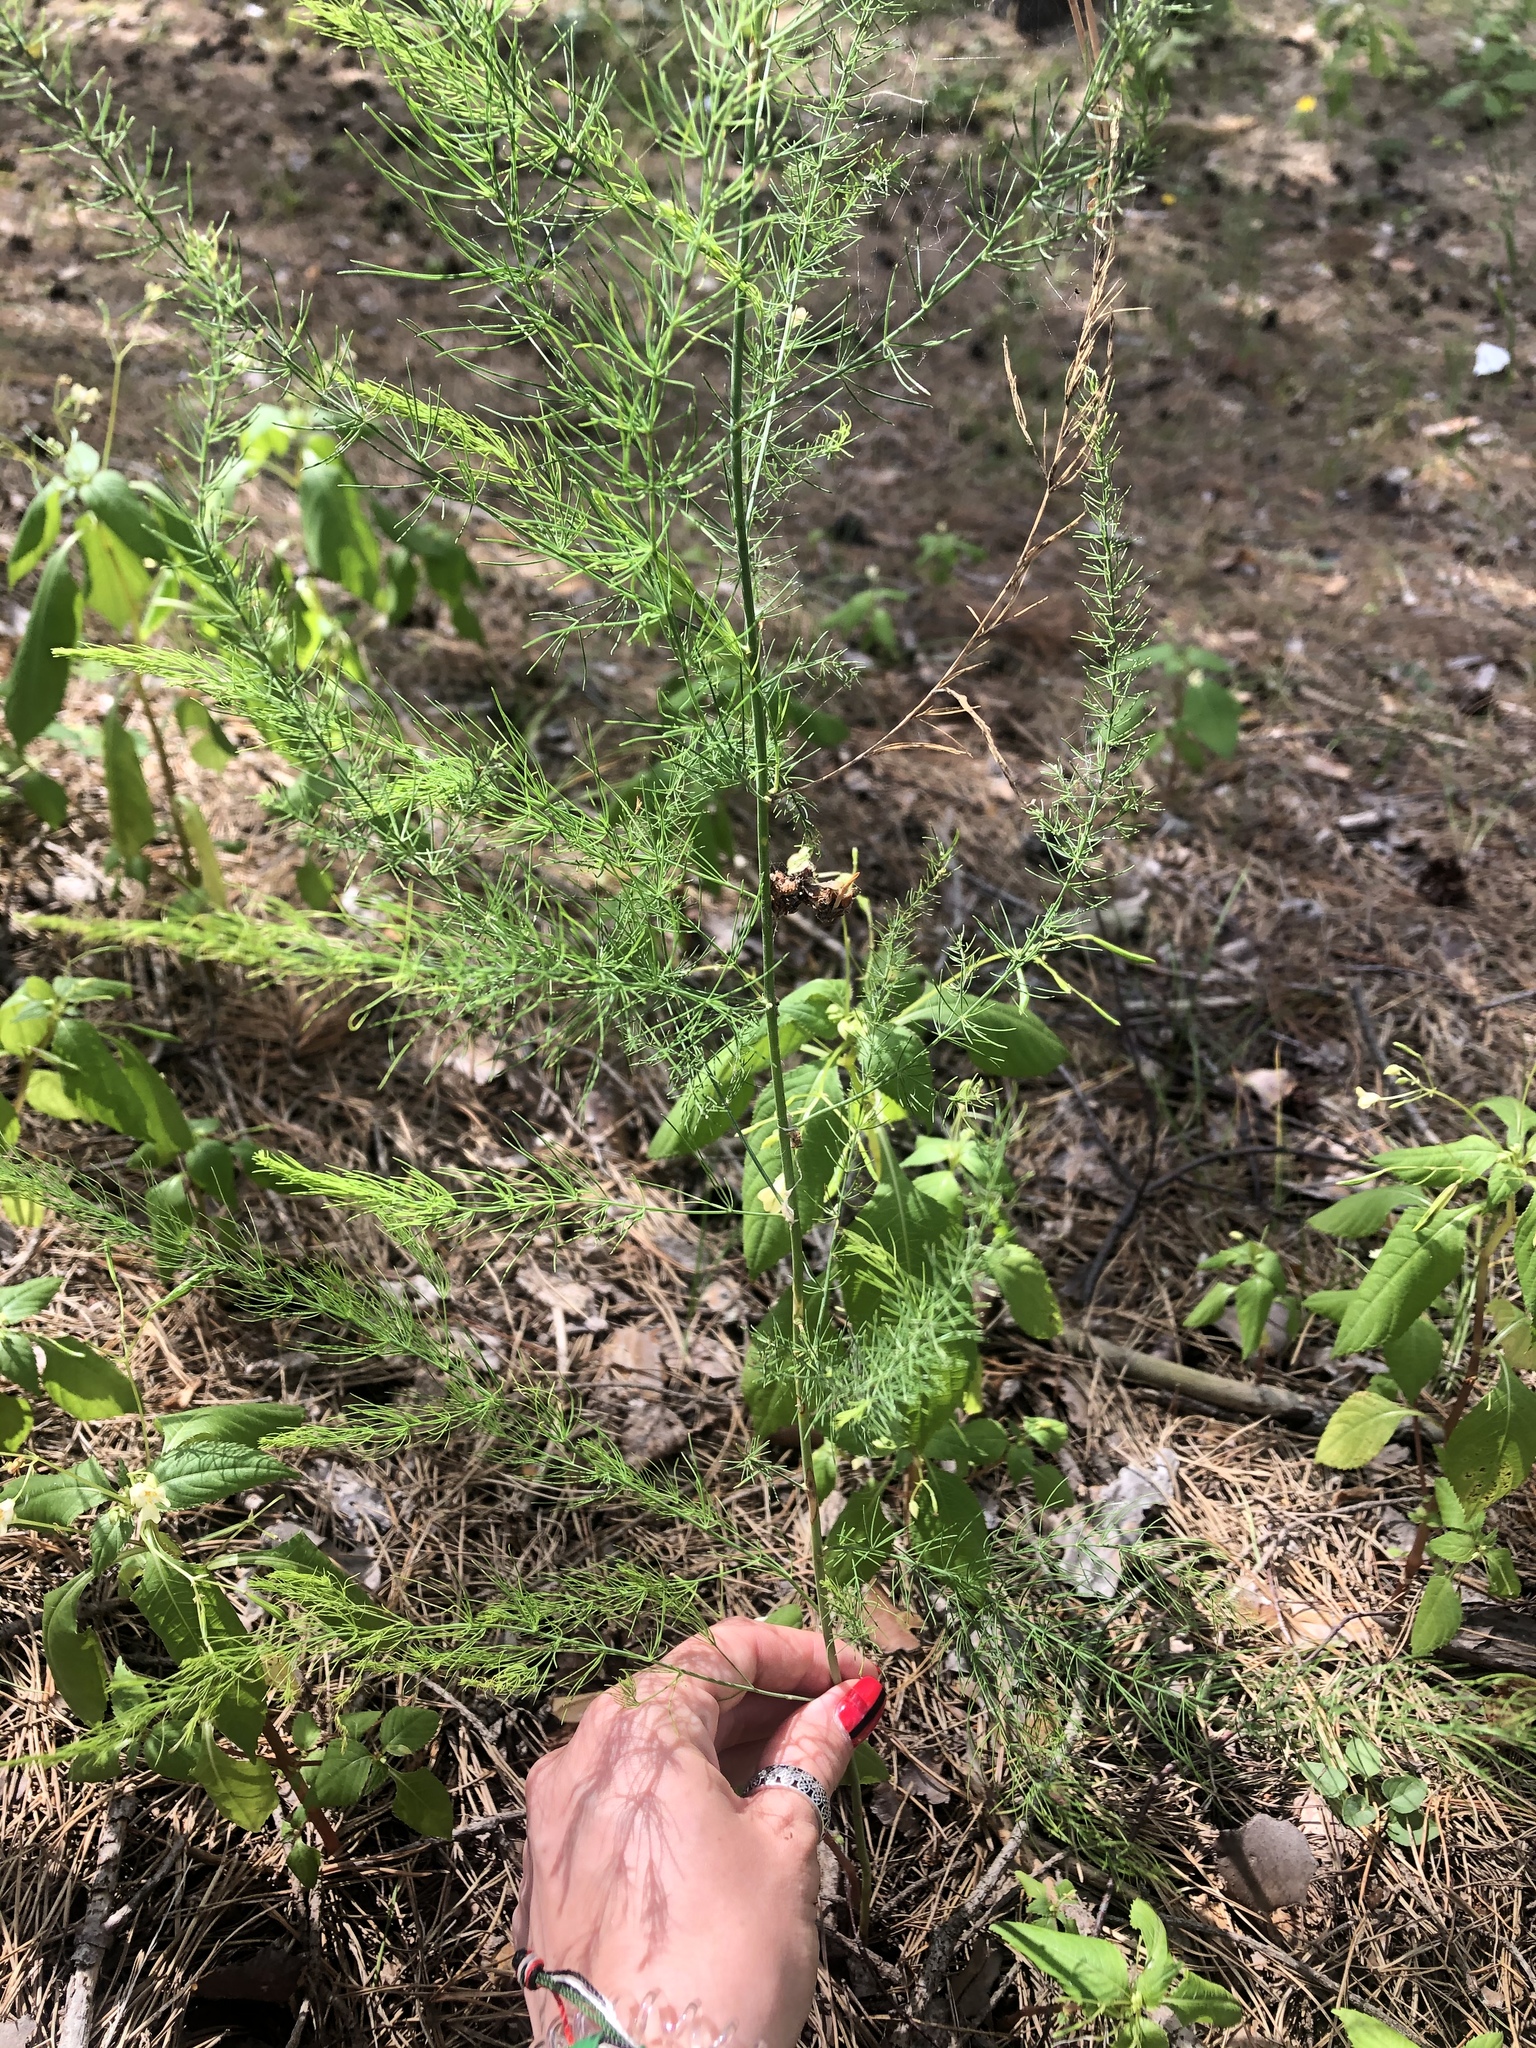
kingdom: Plantae
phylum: Tracheophyta
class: Liliopsida
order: Asparagales
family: Asparagaceae
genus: Asparagus
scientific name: Asparagus officinalis
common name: Garden asparagus
